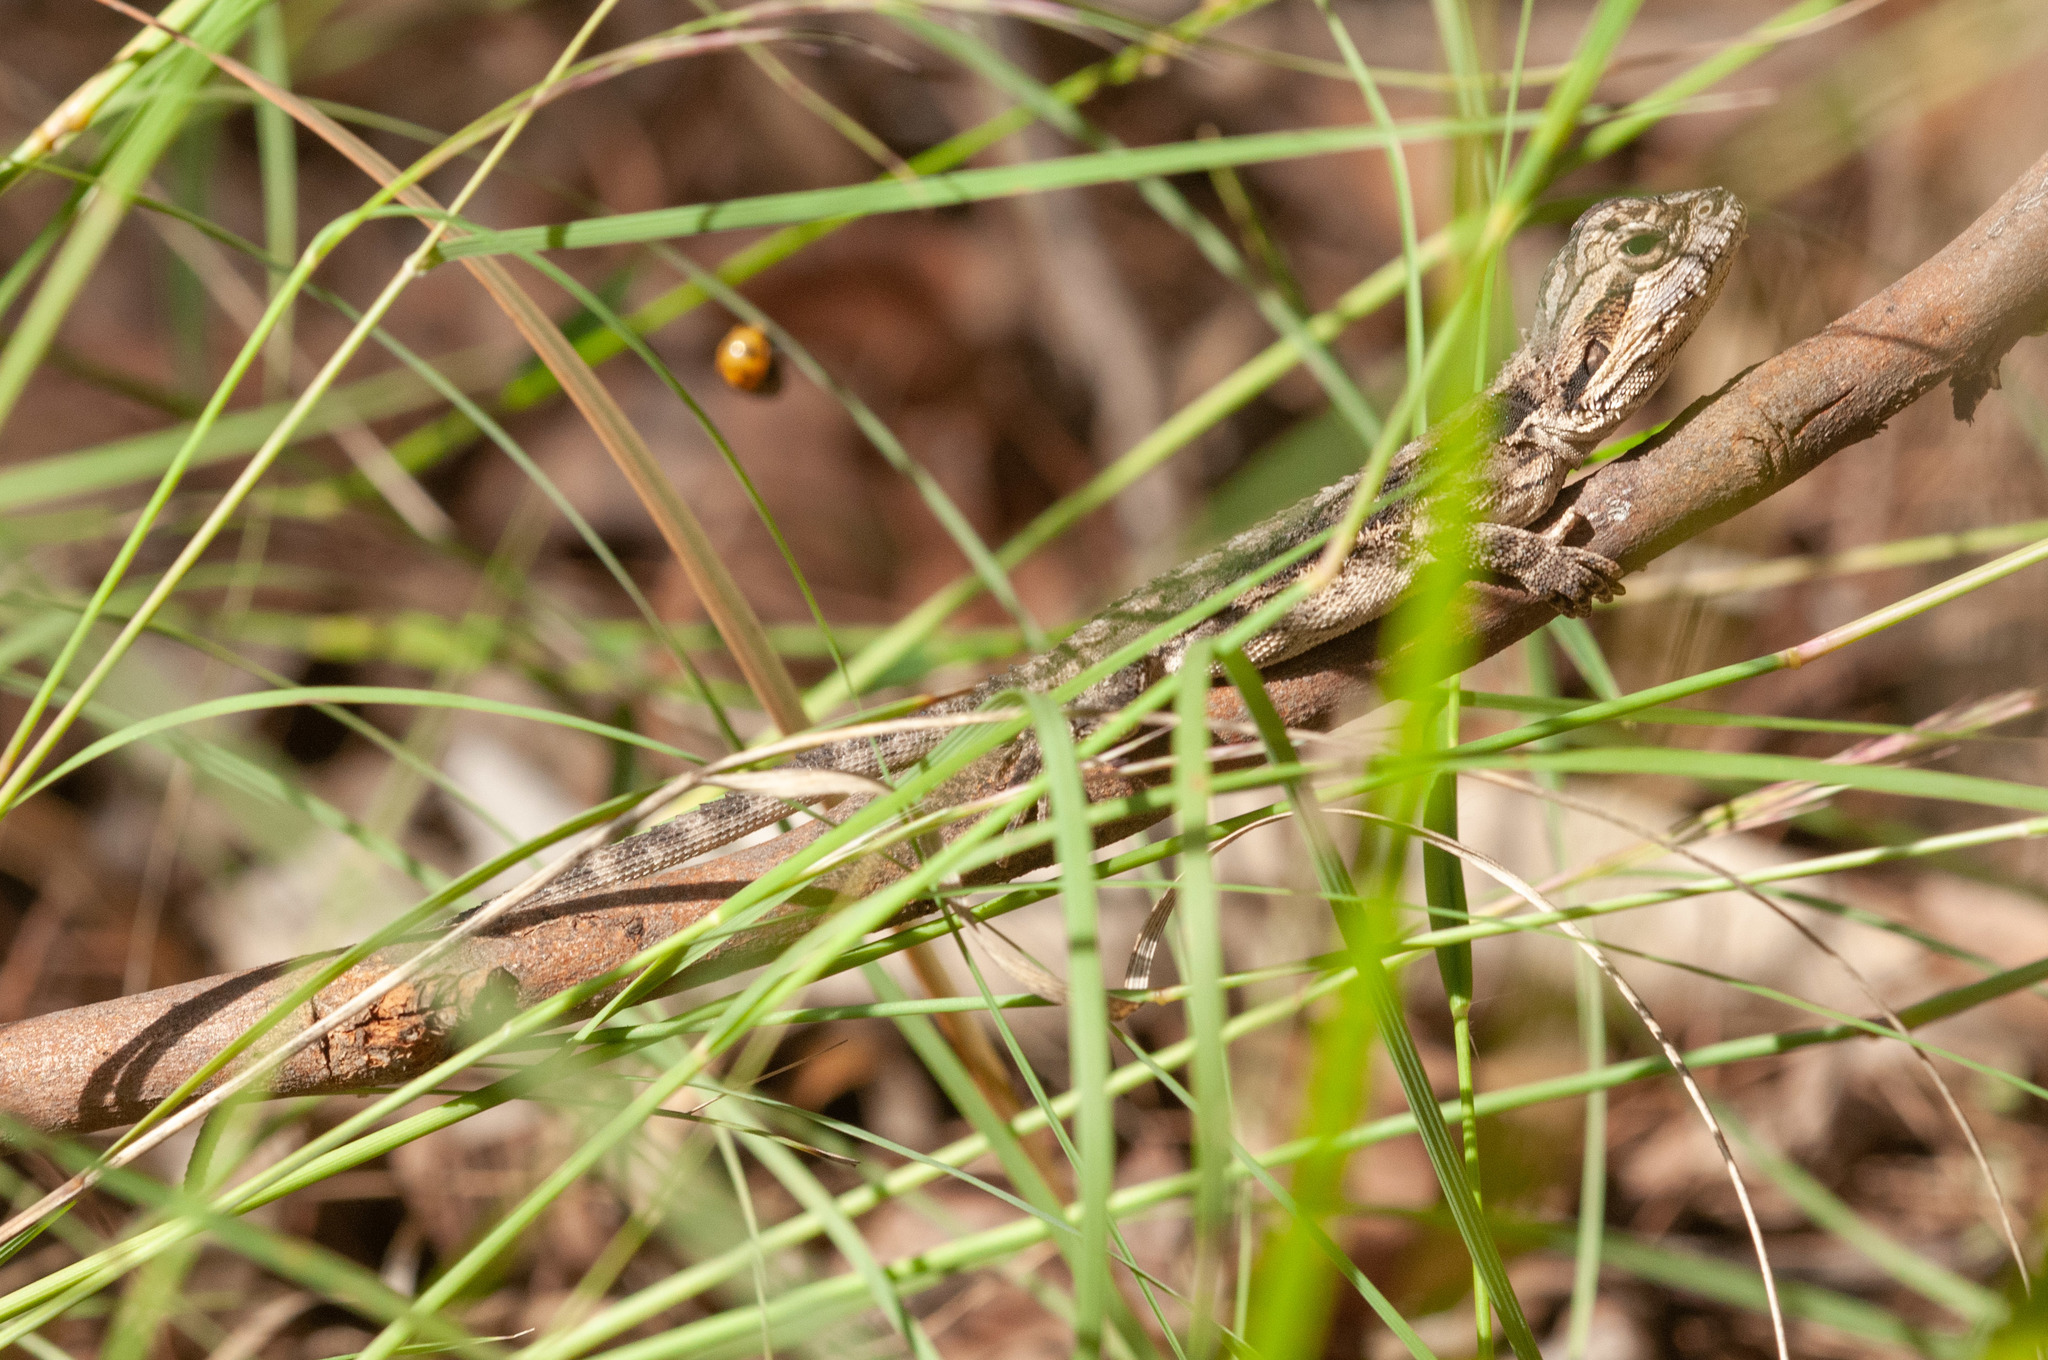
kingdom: Animalia
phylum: Chordata
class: Squamata
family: Agamidae
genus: Pogona
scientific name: Pogona barbata
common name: Bearded dragon
